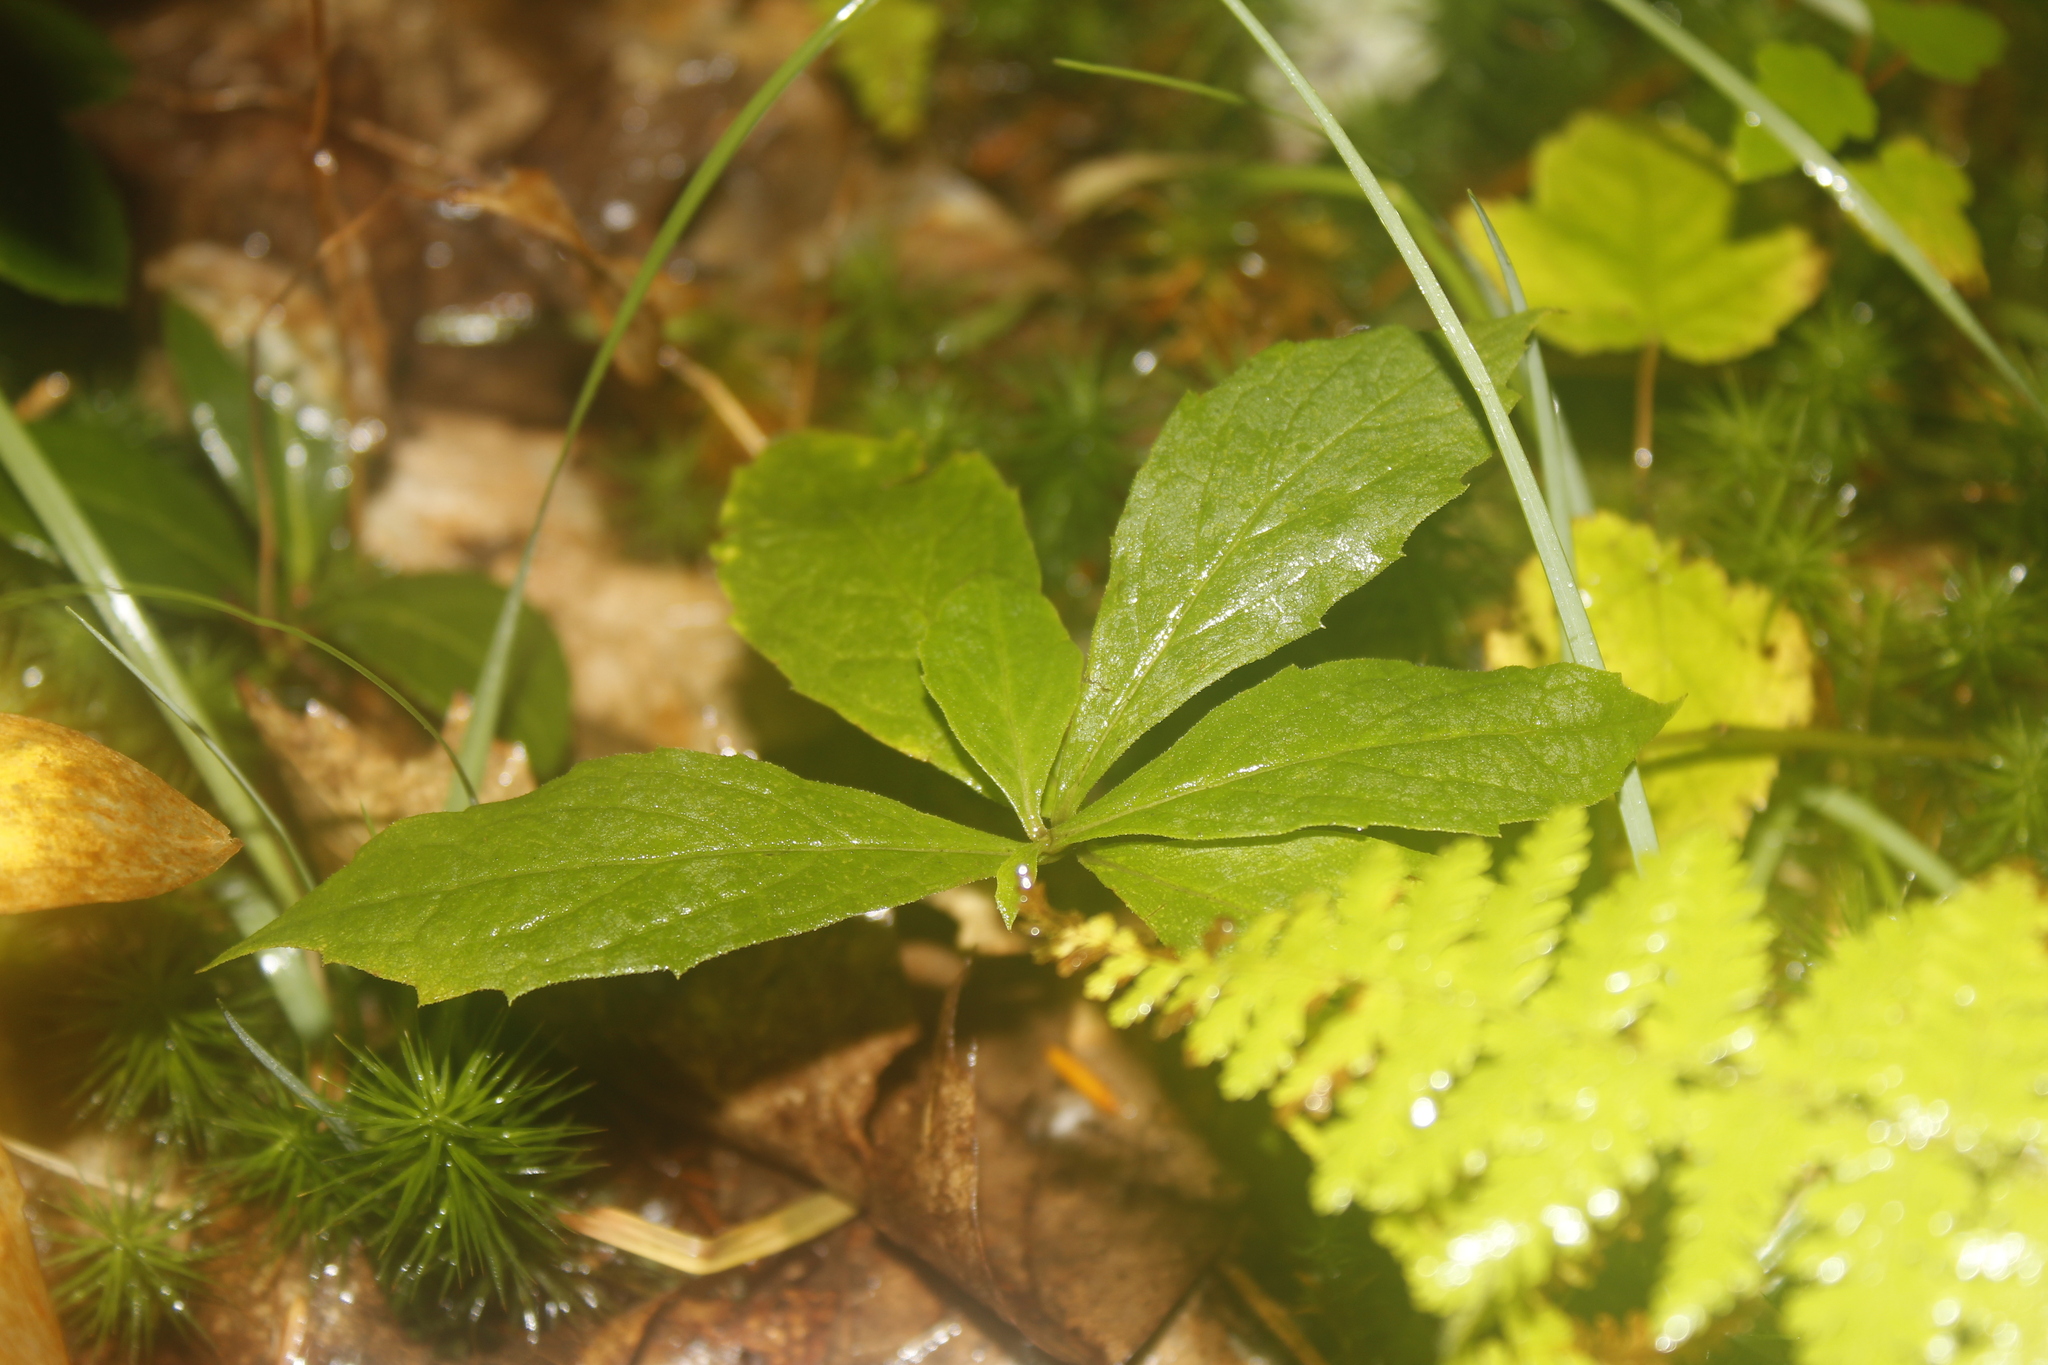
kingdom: Plantae
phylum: Tracheophyta
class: Magnoliopsida
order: Asterales
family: Asteraceae
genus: Oclemena
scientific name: Oclemena acuminata
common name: Mountain aster
